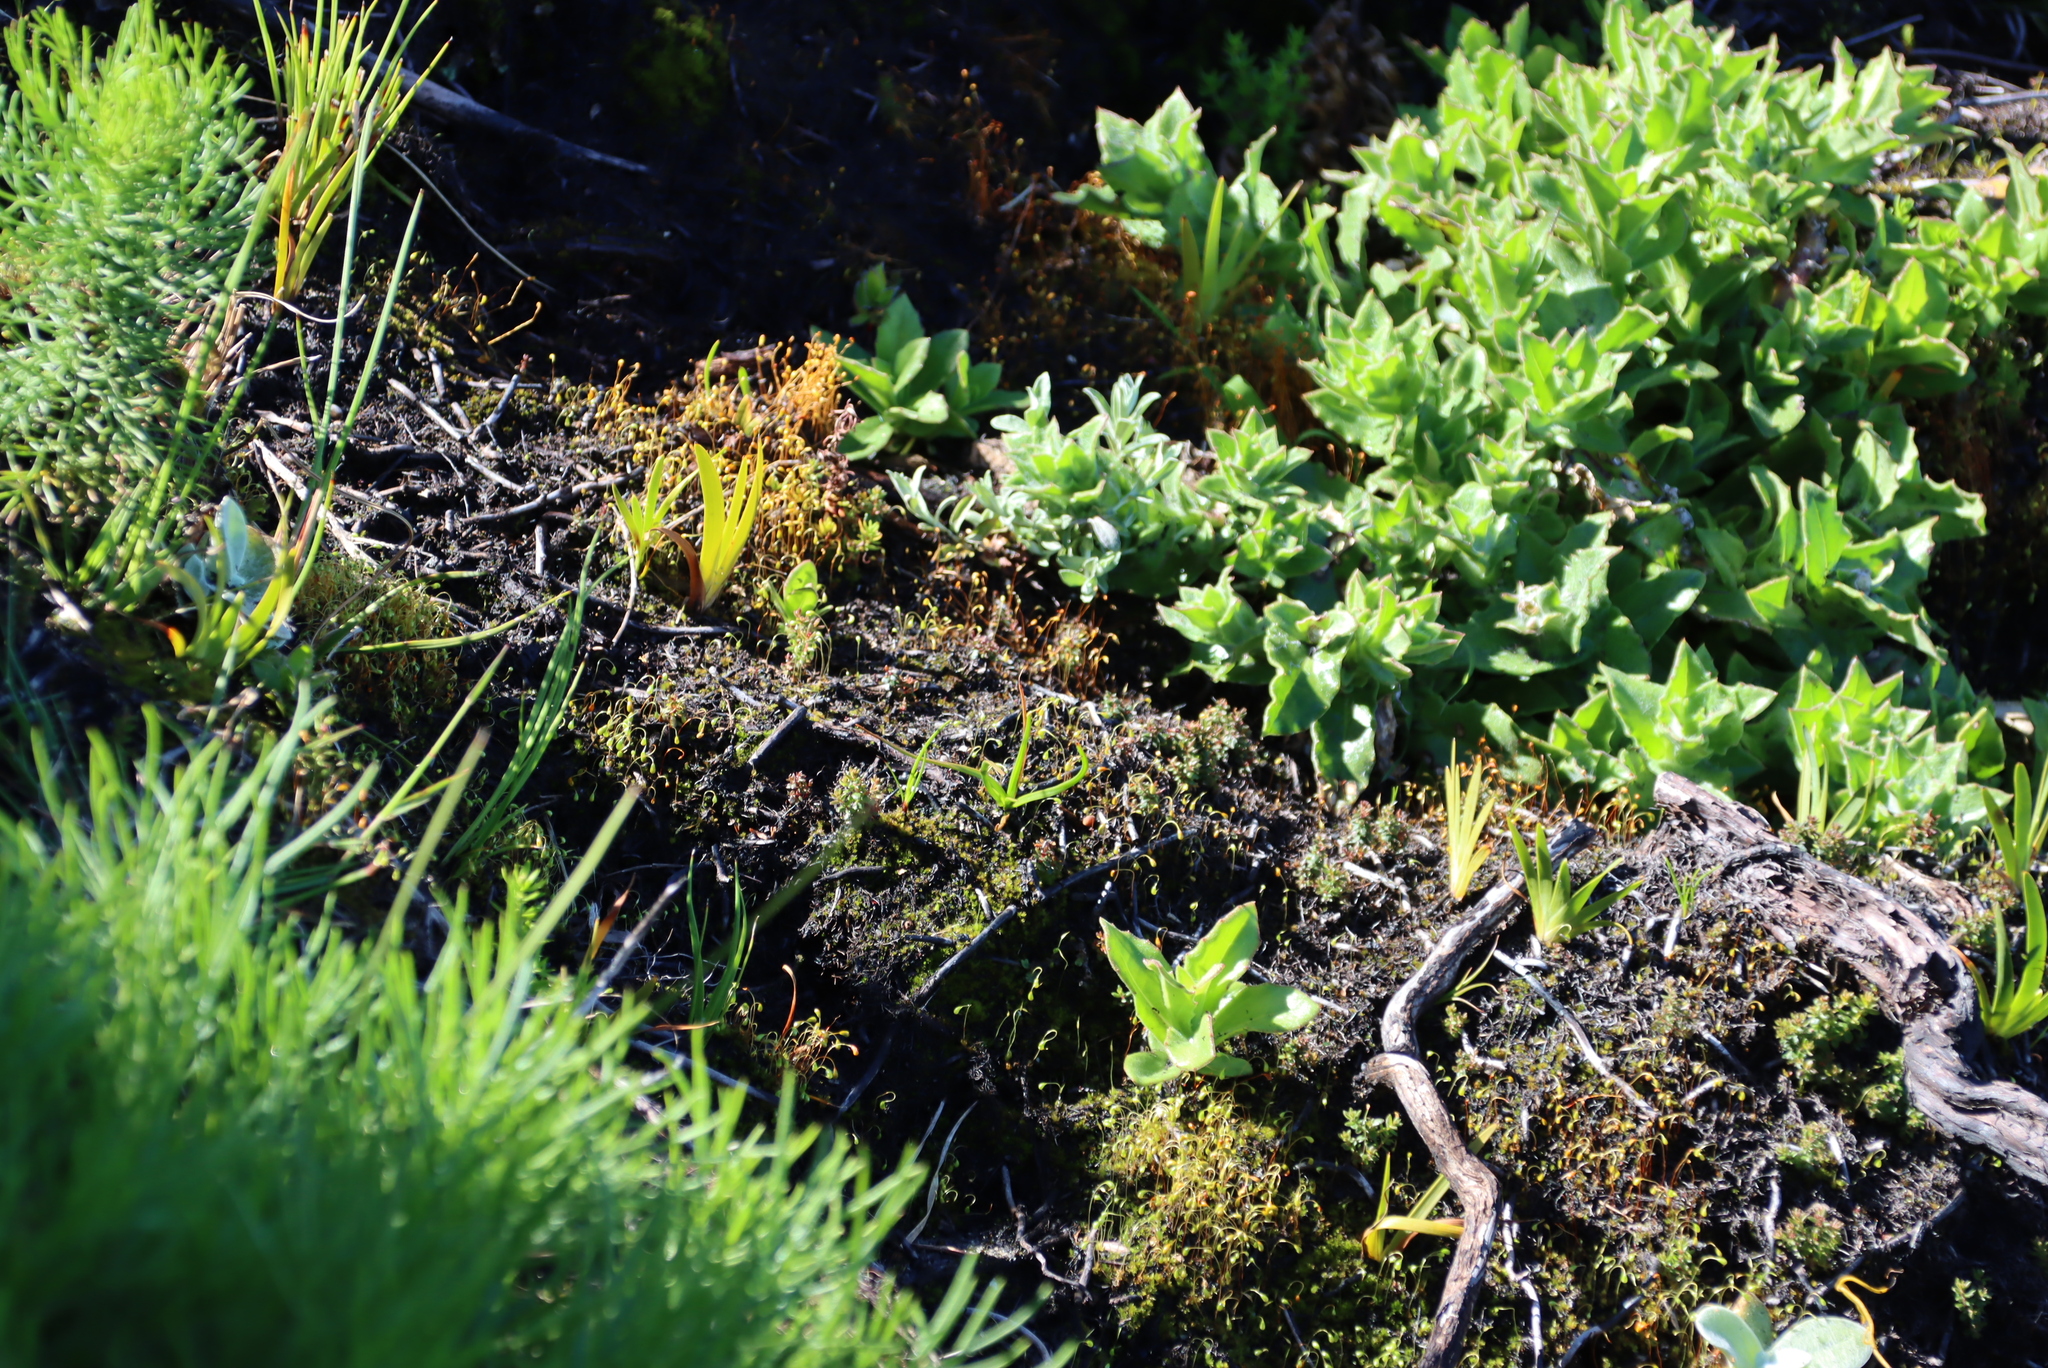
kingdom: Plantae
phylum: Tracheophyta
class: Magnoliopsida
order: Asterales
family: Asteraceae
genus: Osteospermum
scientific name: Osteospermum ilicifolium
